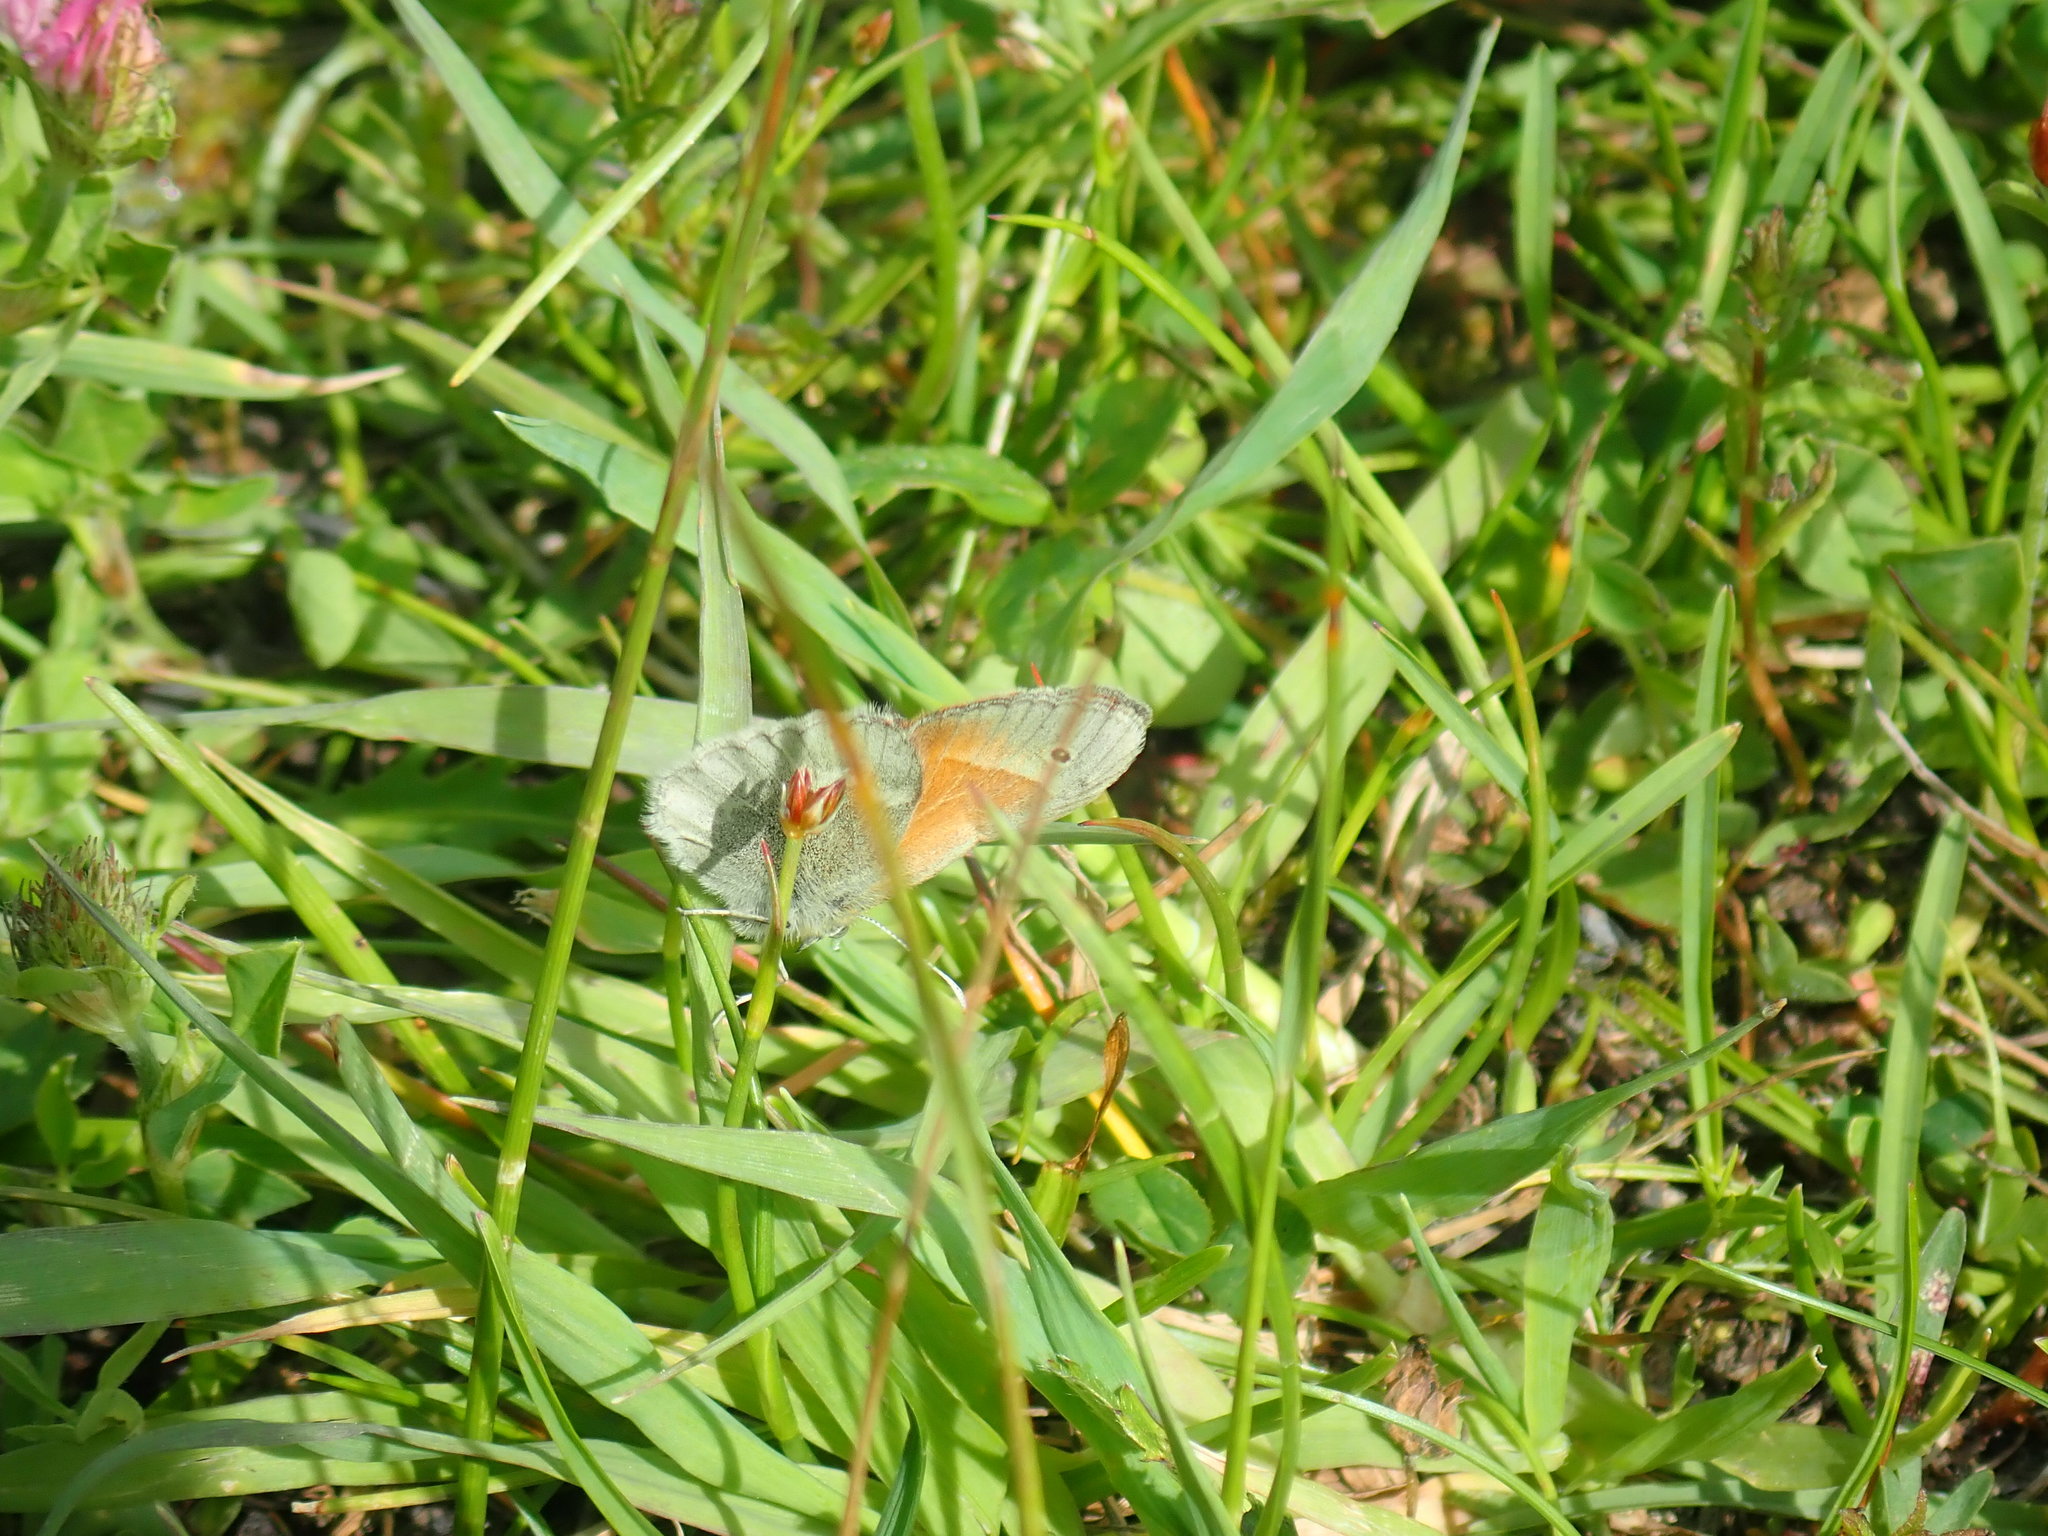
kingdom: Animalia
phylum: Arthropoda
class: Insecta
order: Lepidoptera
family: Nymphalidae
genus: Coenonympha
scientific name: Coenonympha california
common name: Common ringlet
